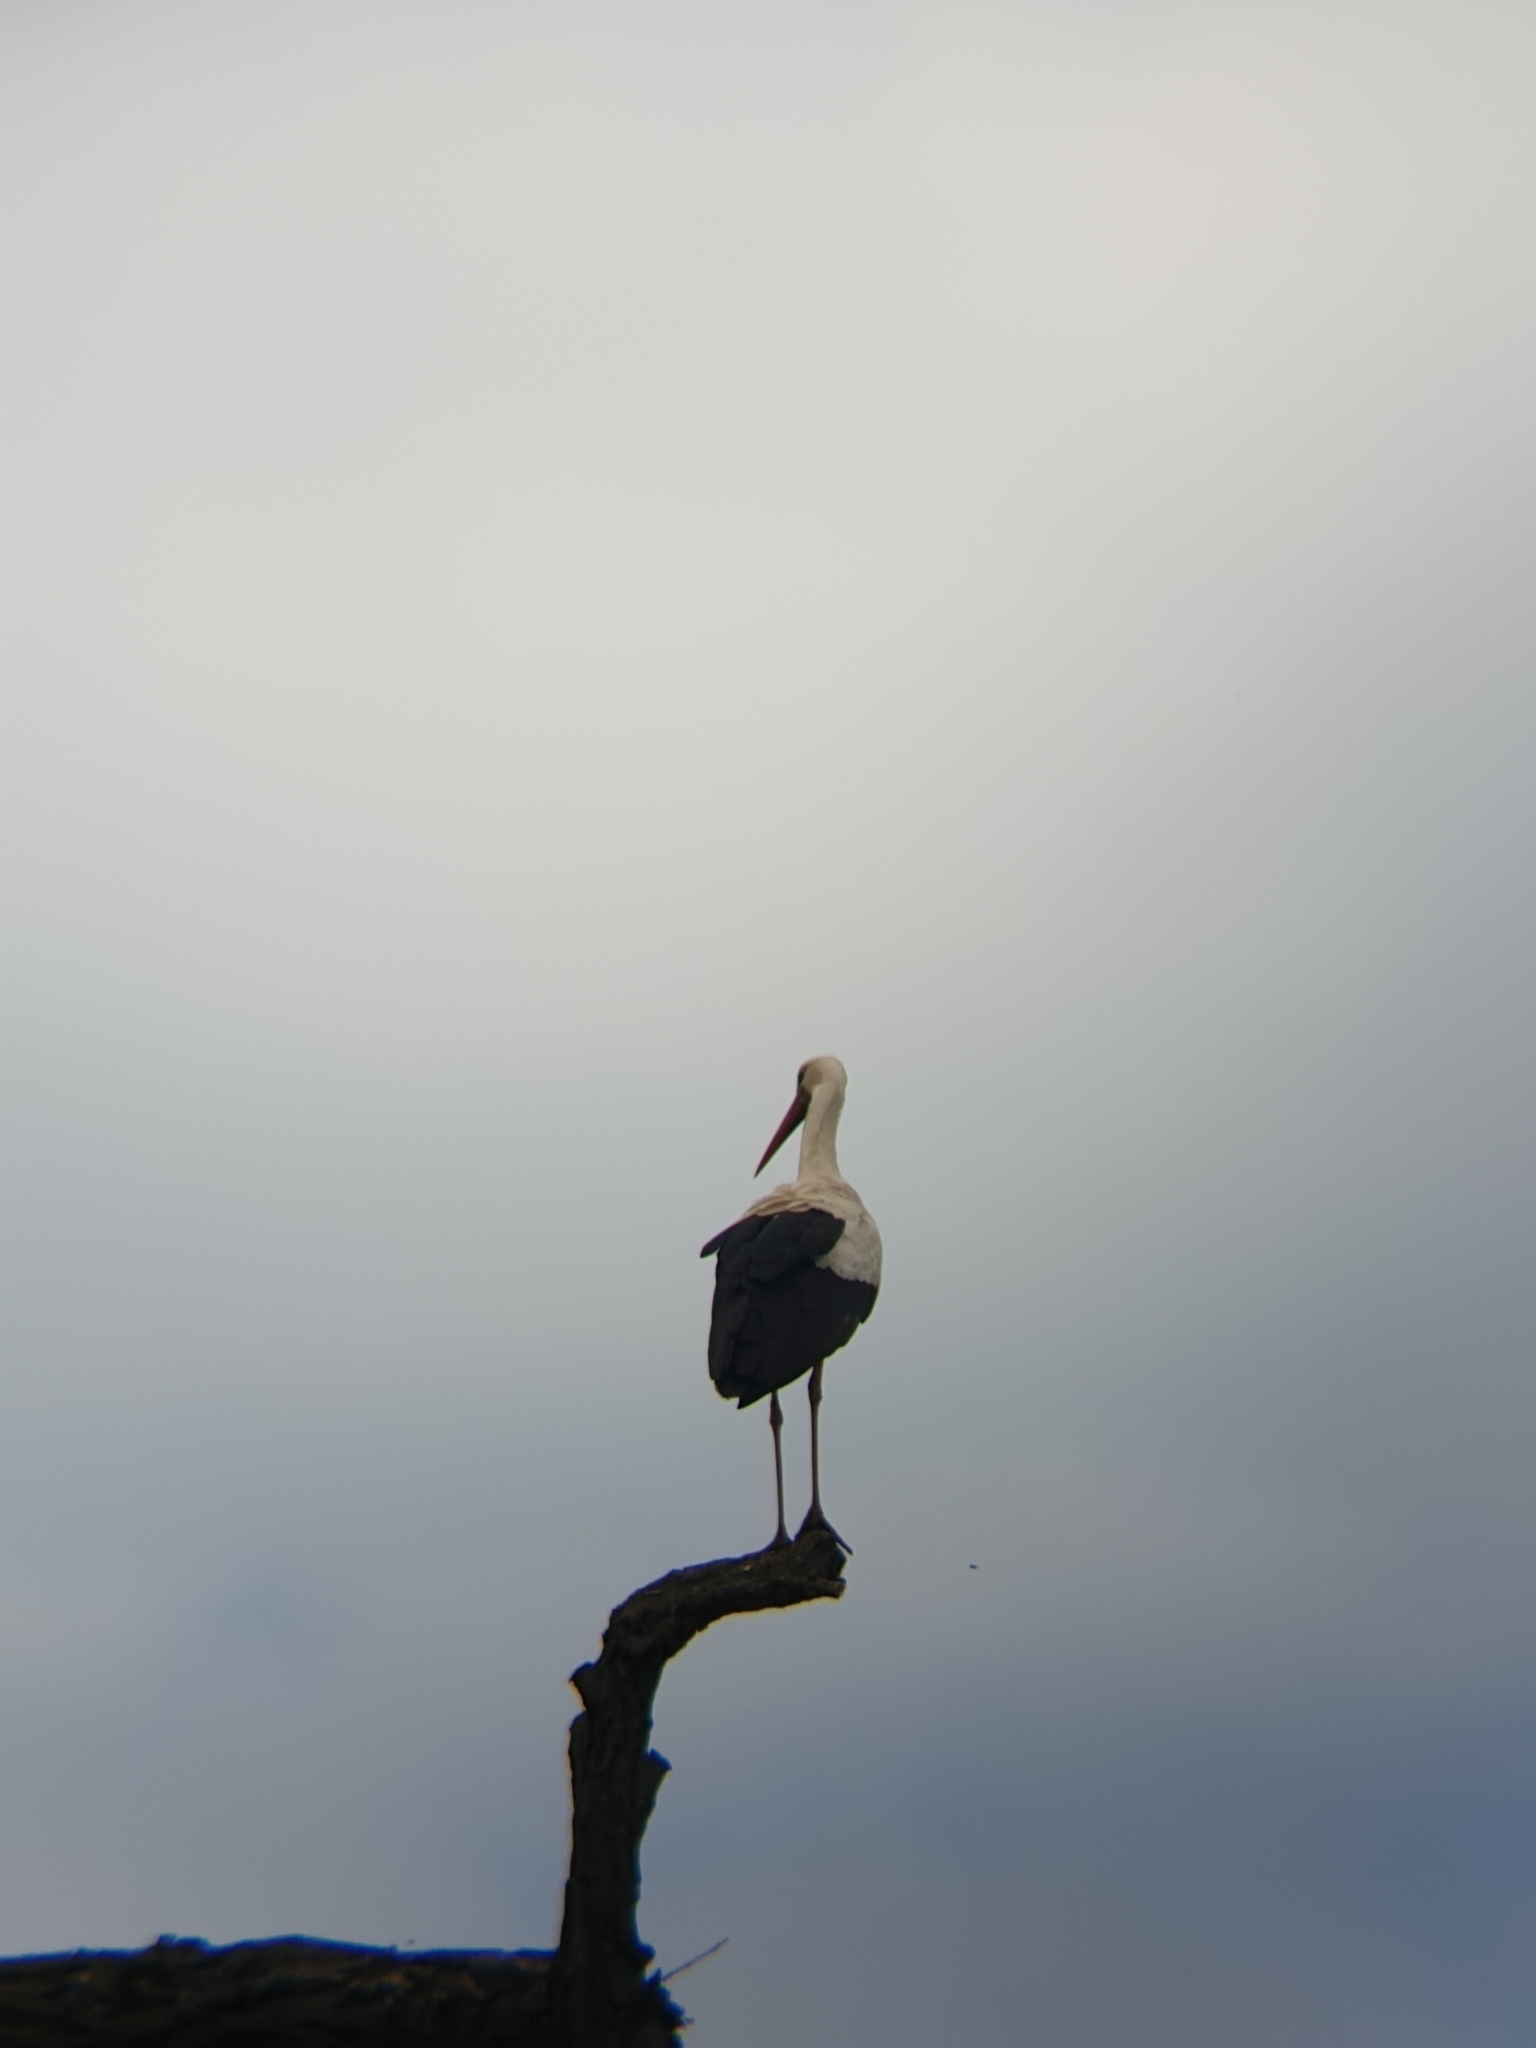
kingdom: Animalia
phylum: Chordata
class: Aves
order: Ciconiiformes
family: Ciconiidae
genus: Ciconia
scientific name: Ciconia ciconia
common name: White stork
